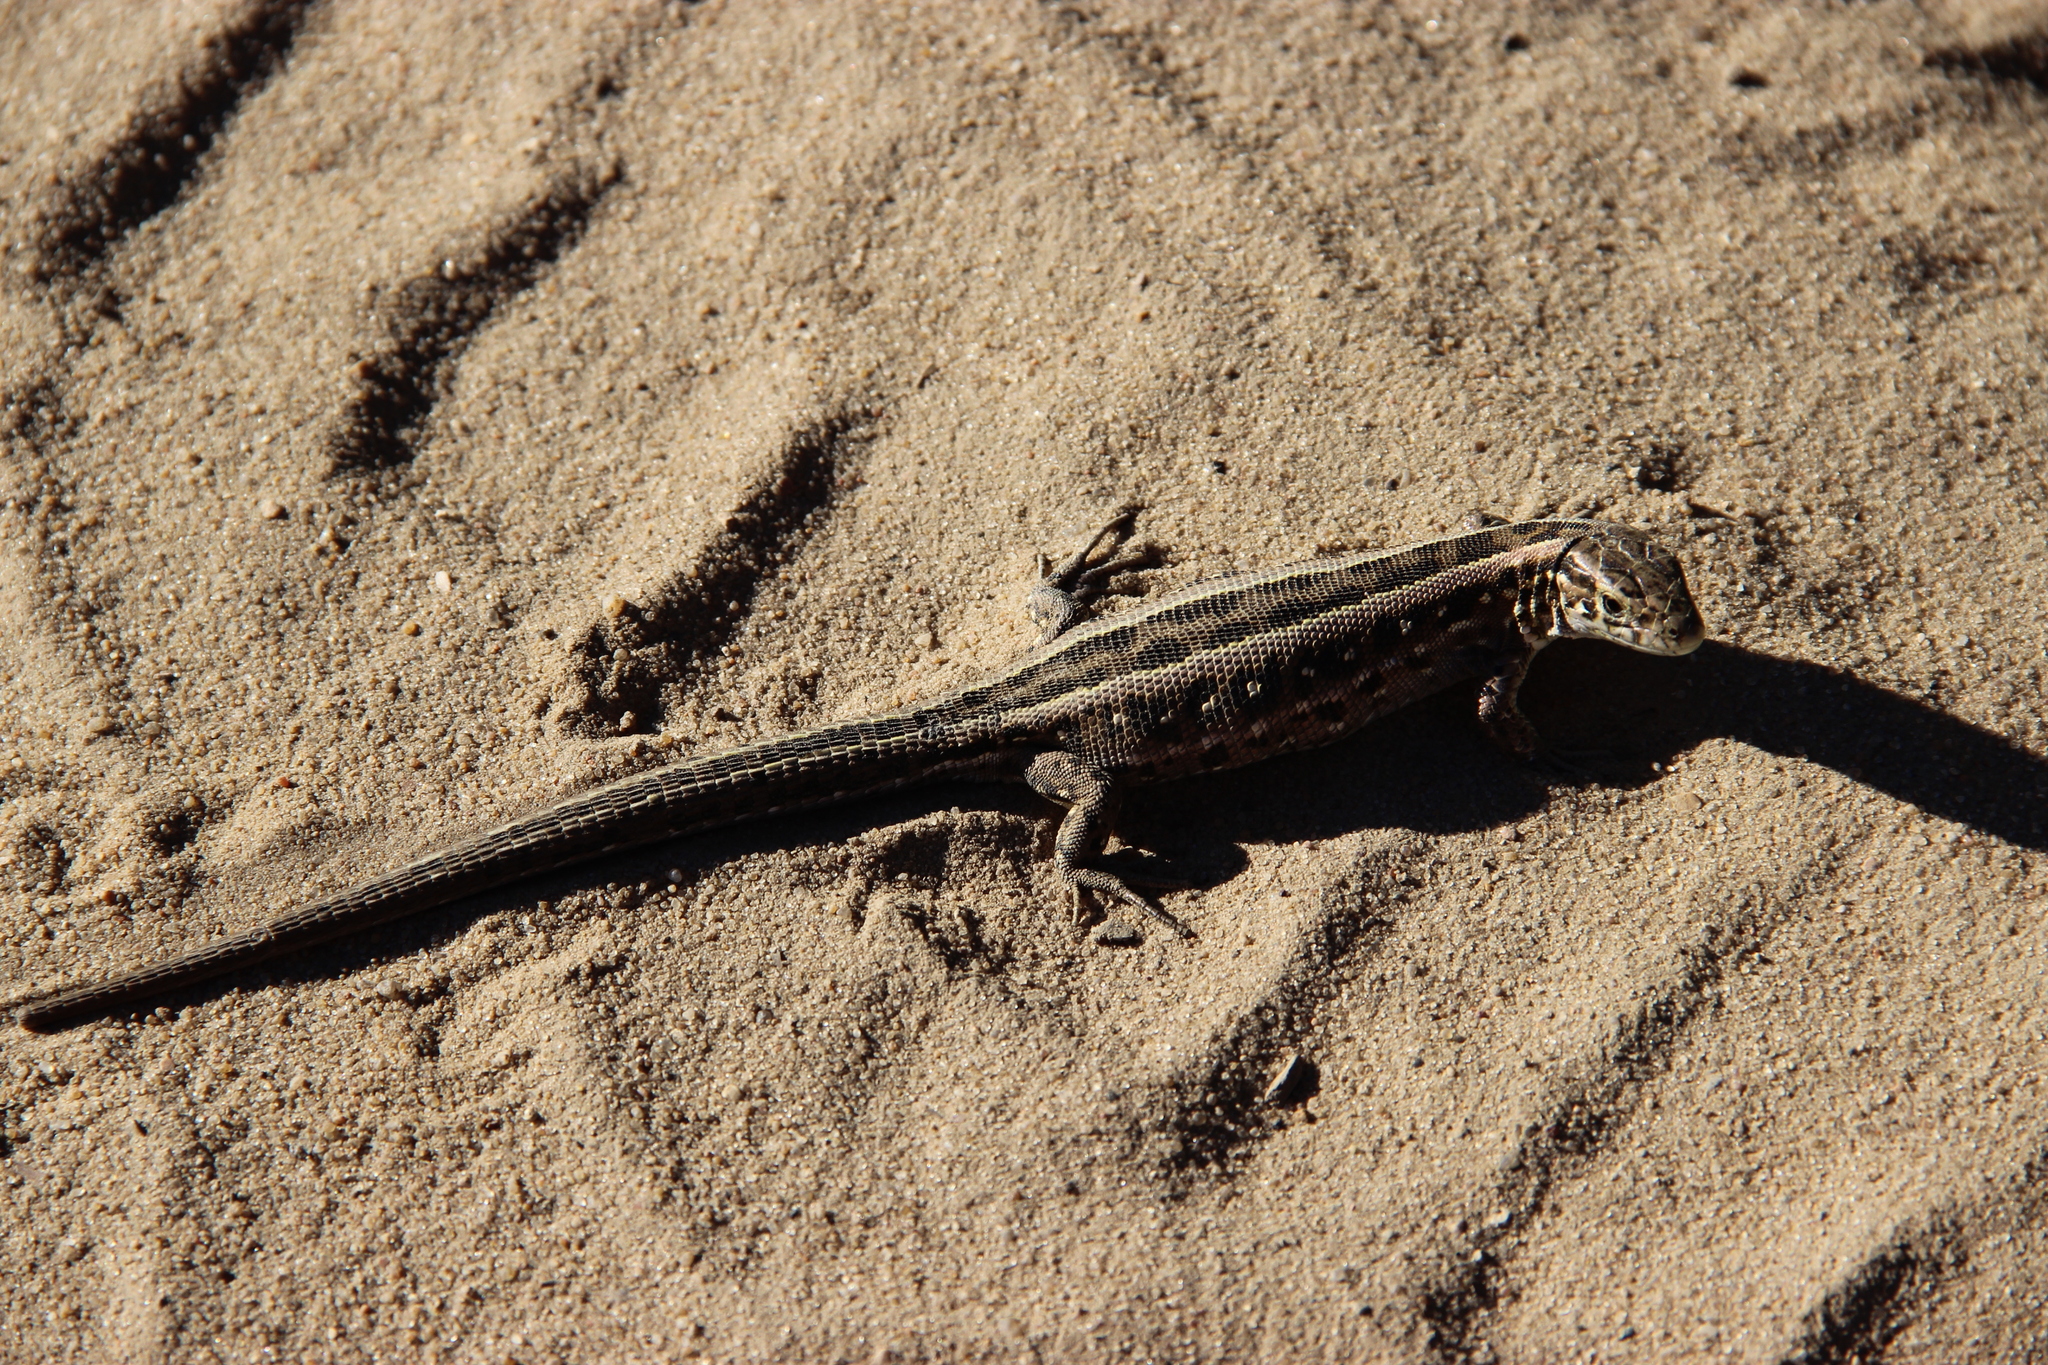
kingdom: Animalia
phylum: Chordata
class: Squamata
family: Lacertidae
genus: Lacerta
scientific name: Lacerta agilis
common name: Sand lizard
